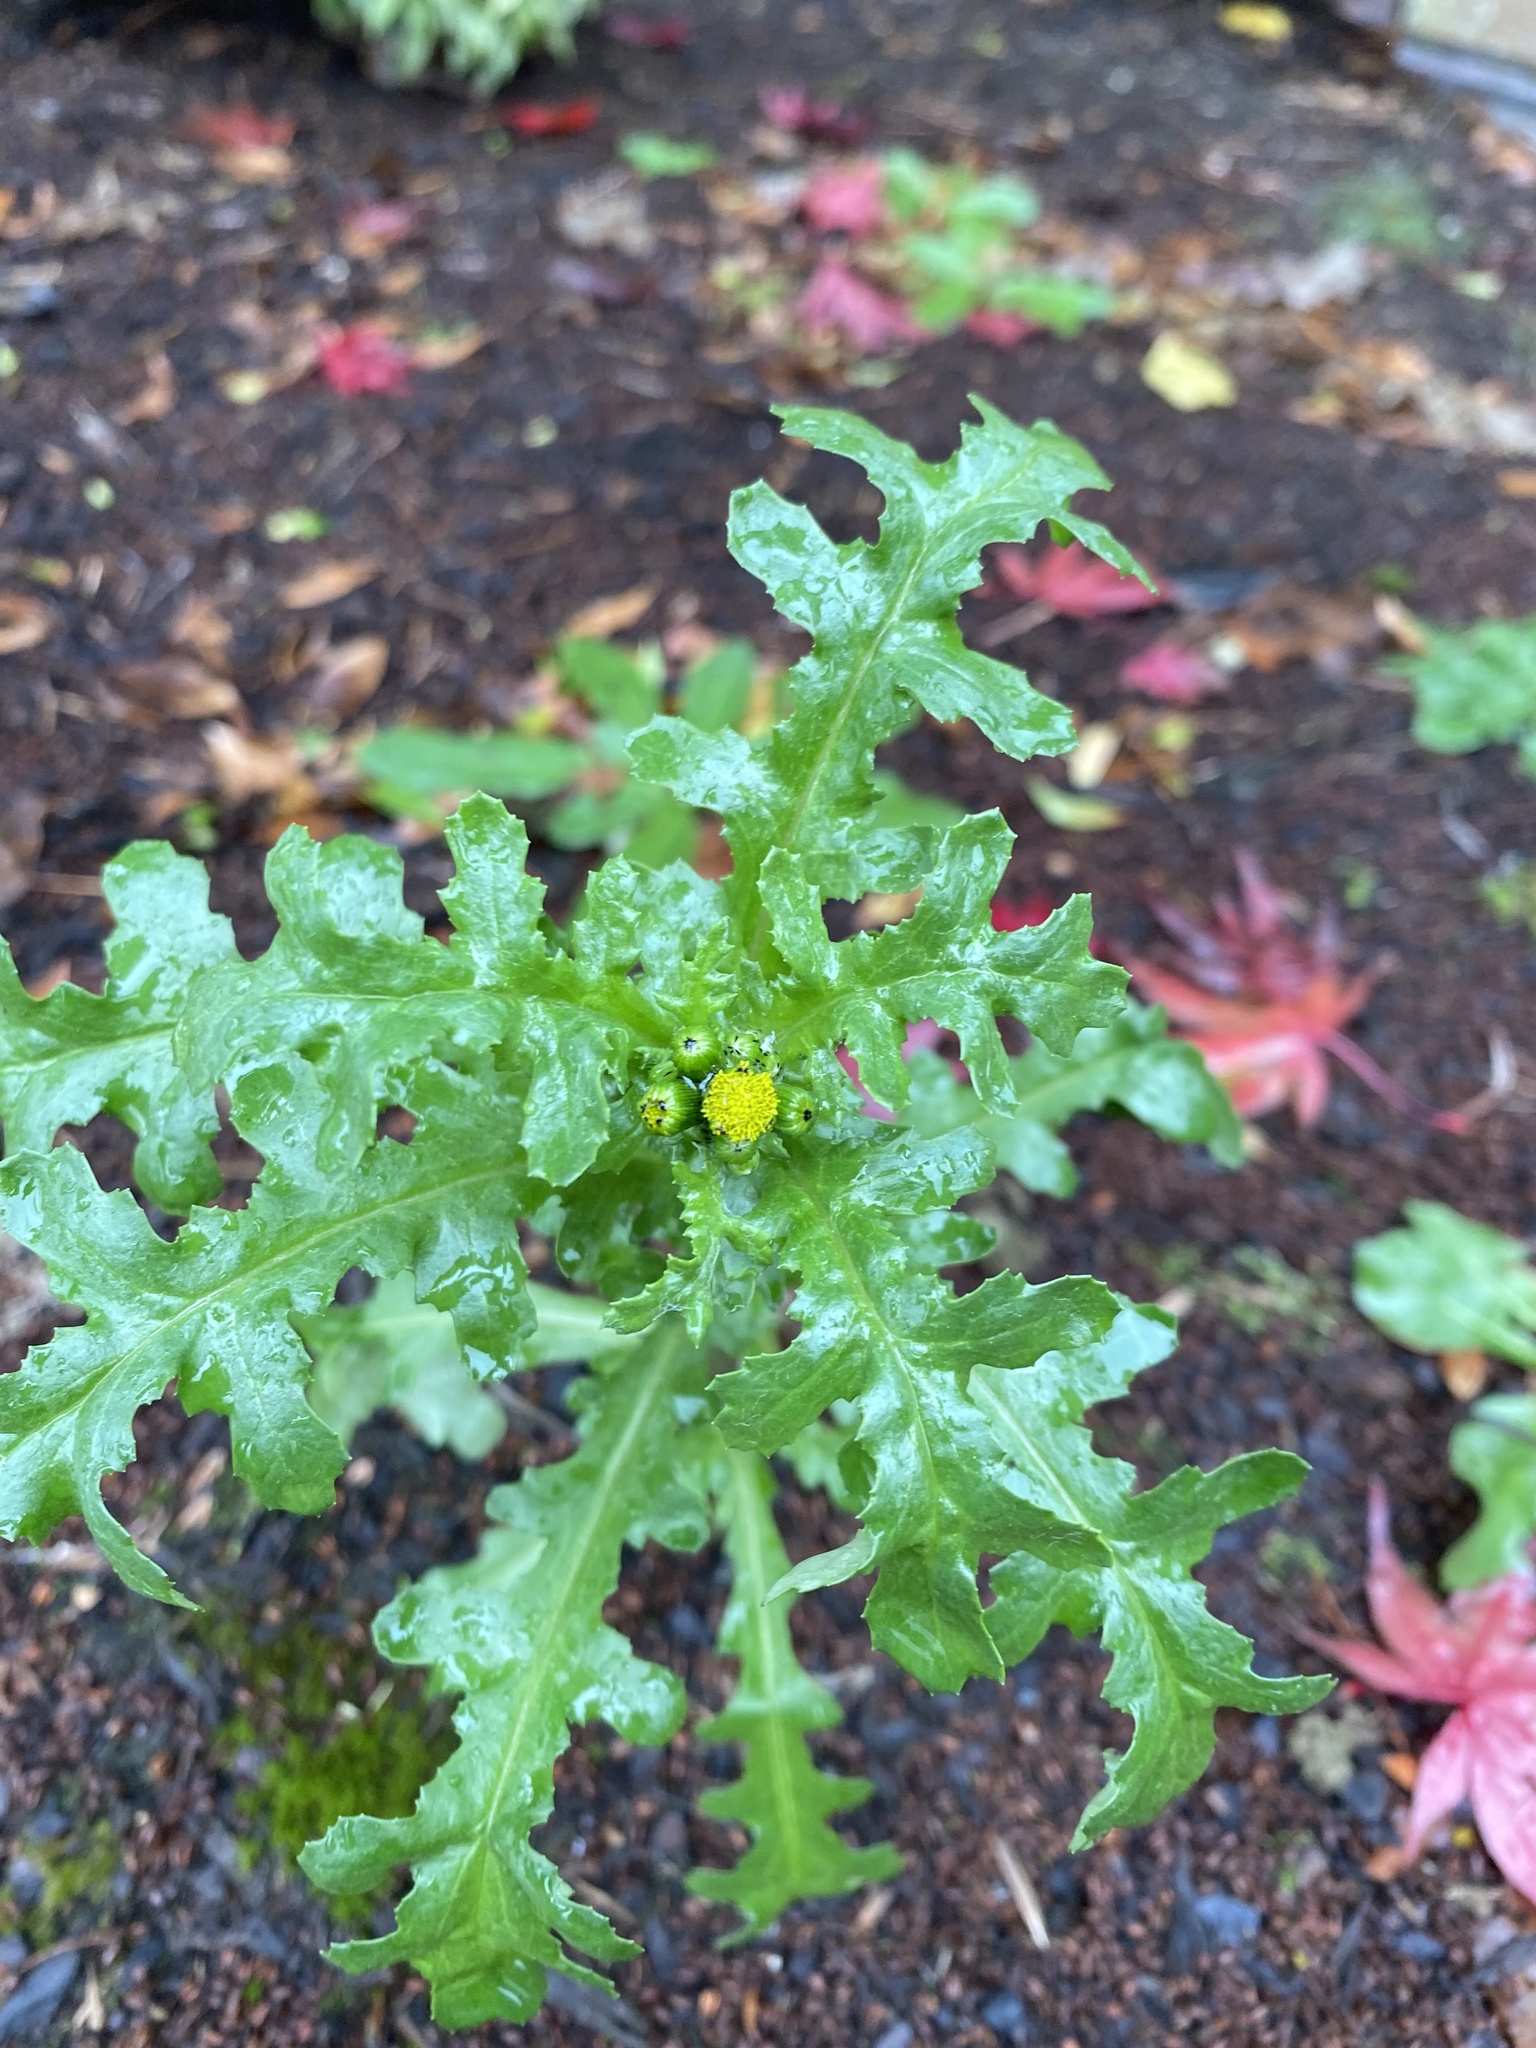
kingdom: Plantae
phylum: Tracheophyta
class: Magnoliopsida
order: Asterales
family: Asteraceae
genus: Senecio
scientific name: Senecio vulgaris
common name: Old-man-in-the-spring
